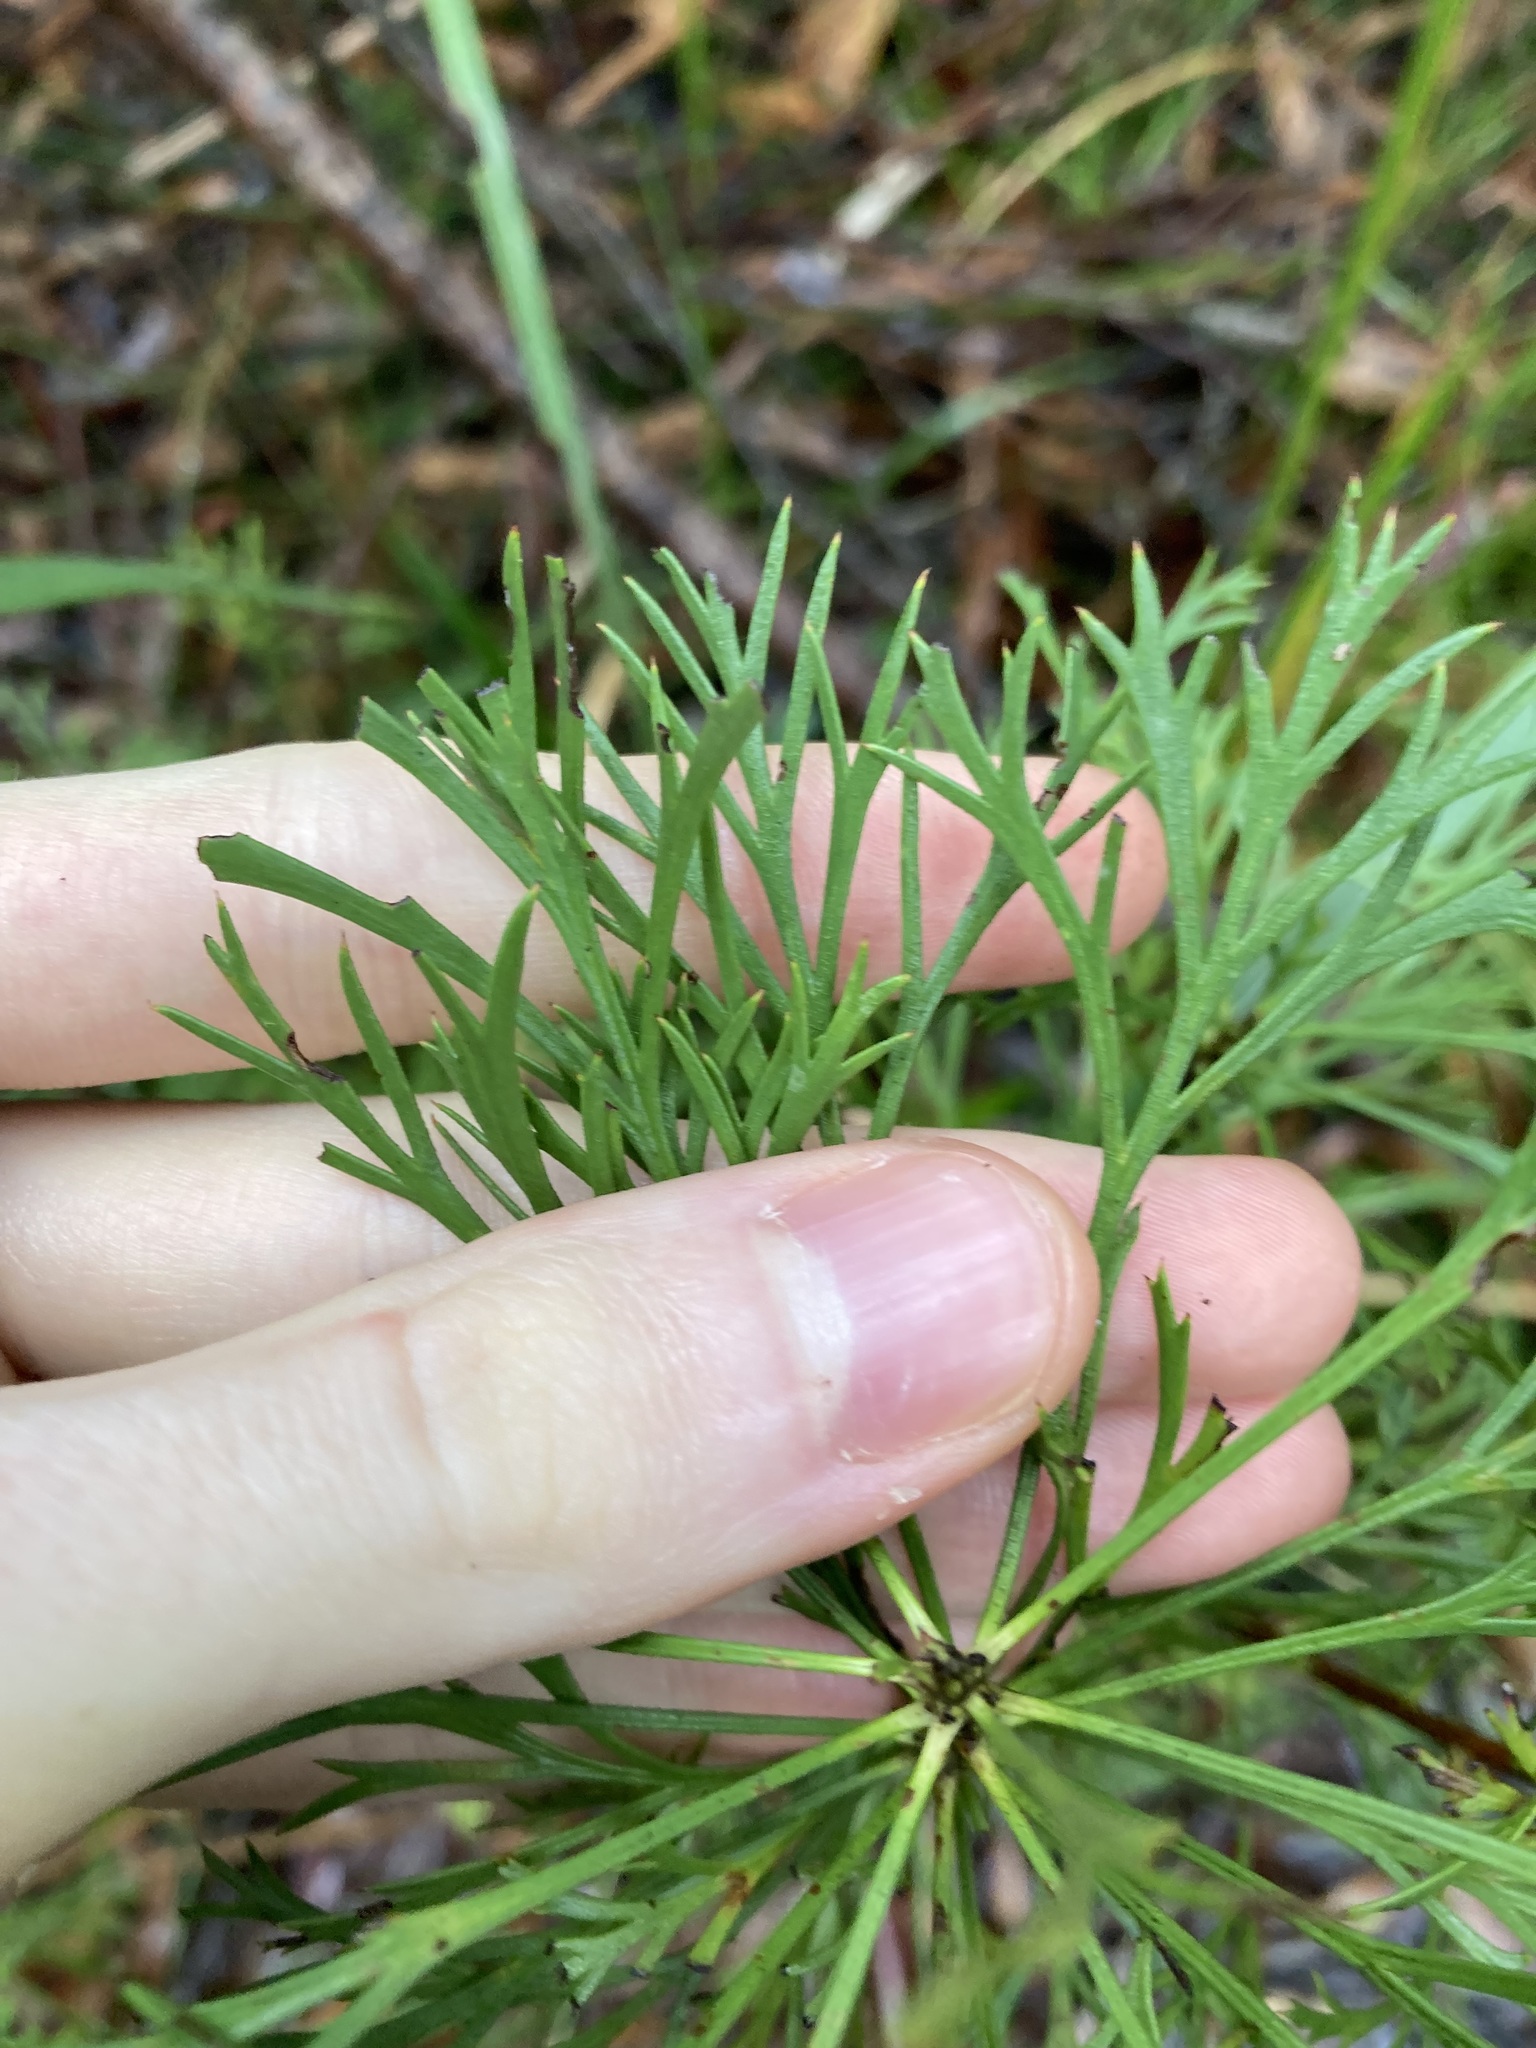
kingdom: Plantae
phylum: Tracheophyta
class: Magnoliopsida
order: Proteales
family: Proteaceae
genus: Isopogon
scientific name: Isopogon anemonifolius
